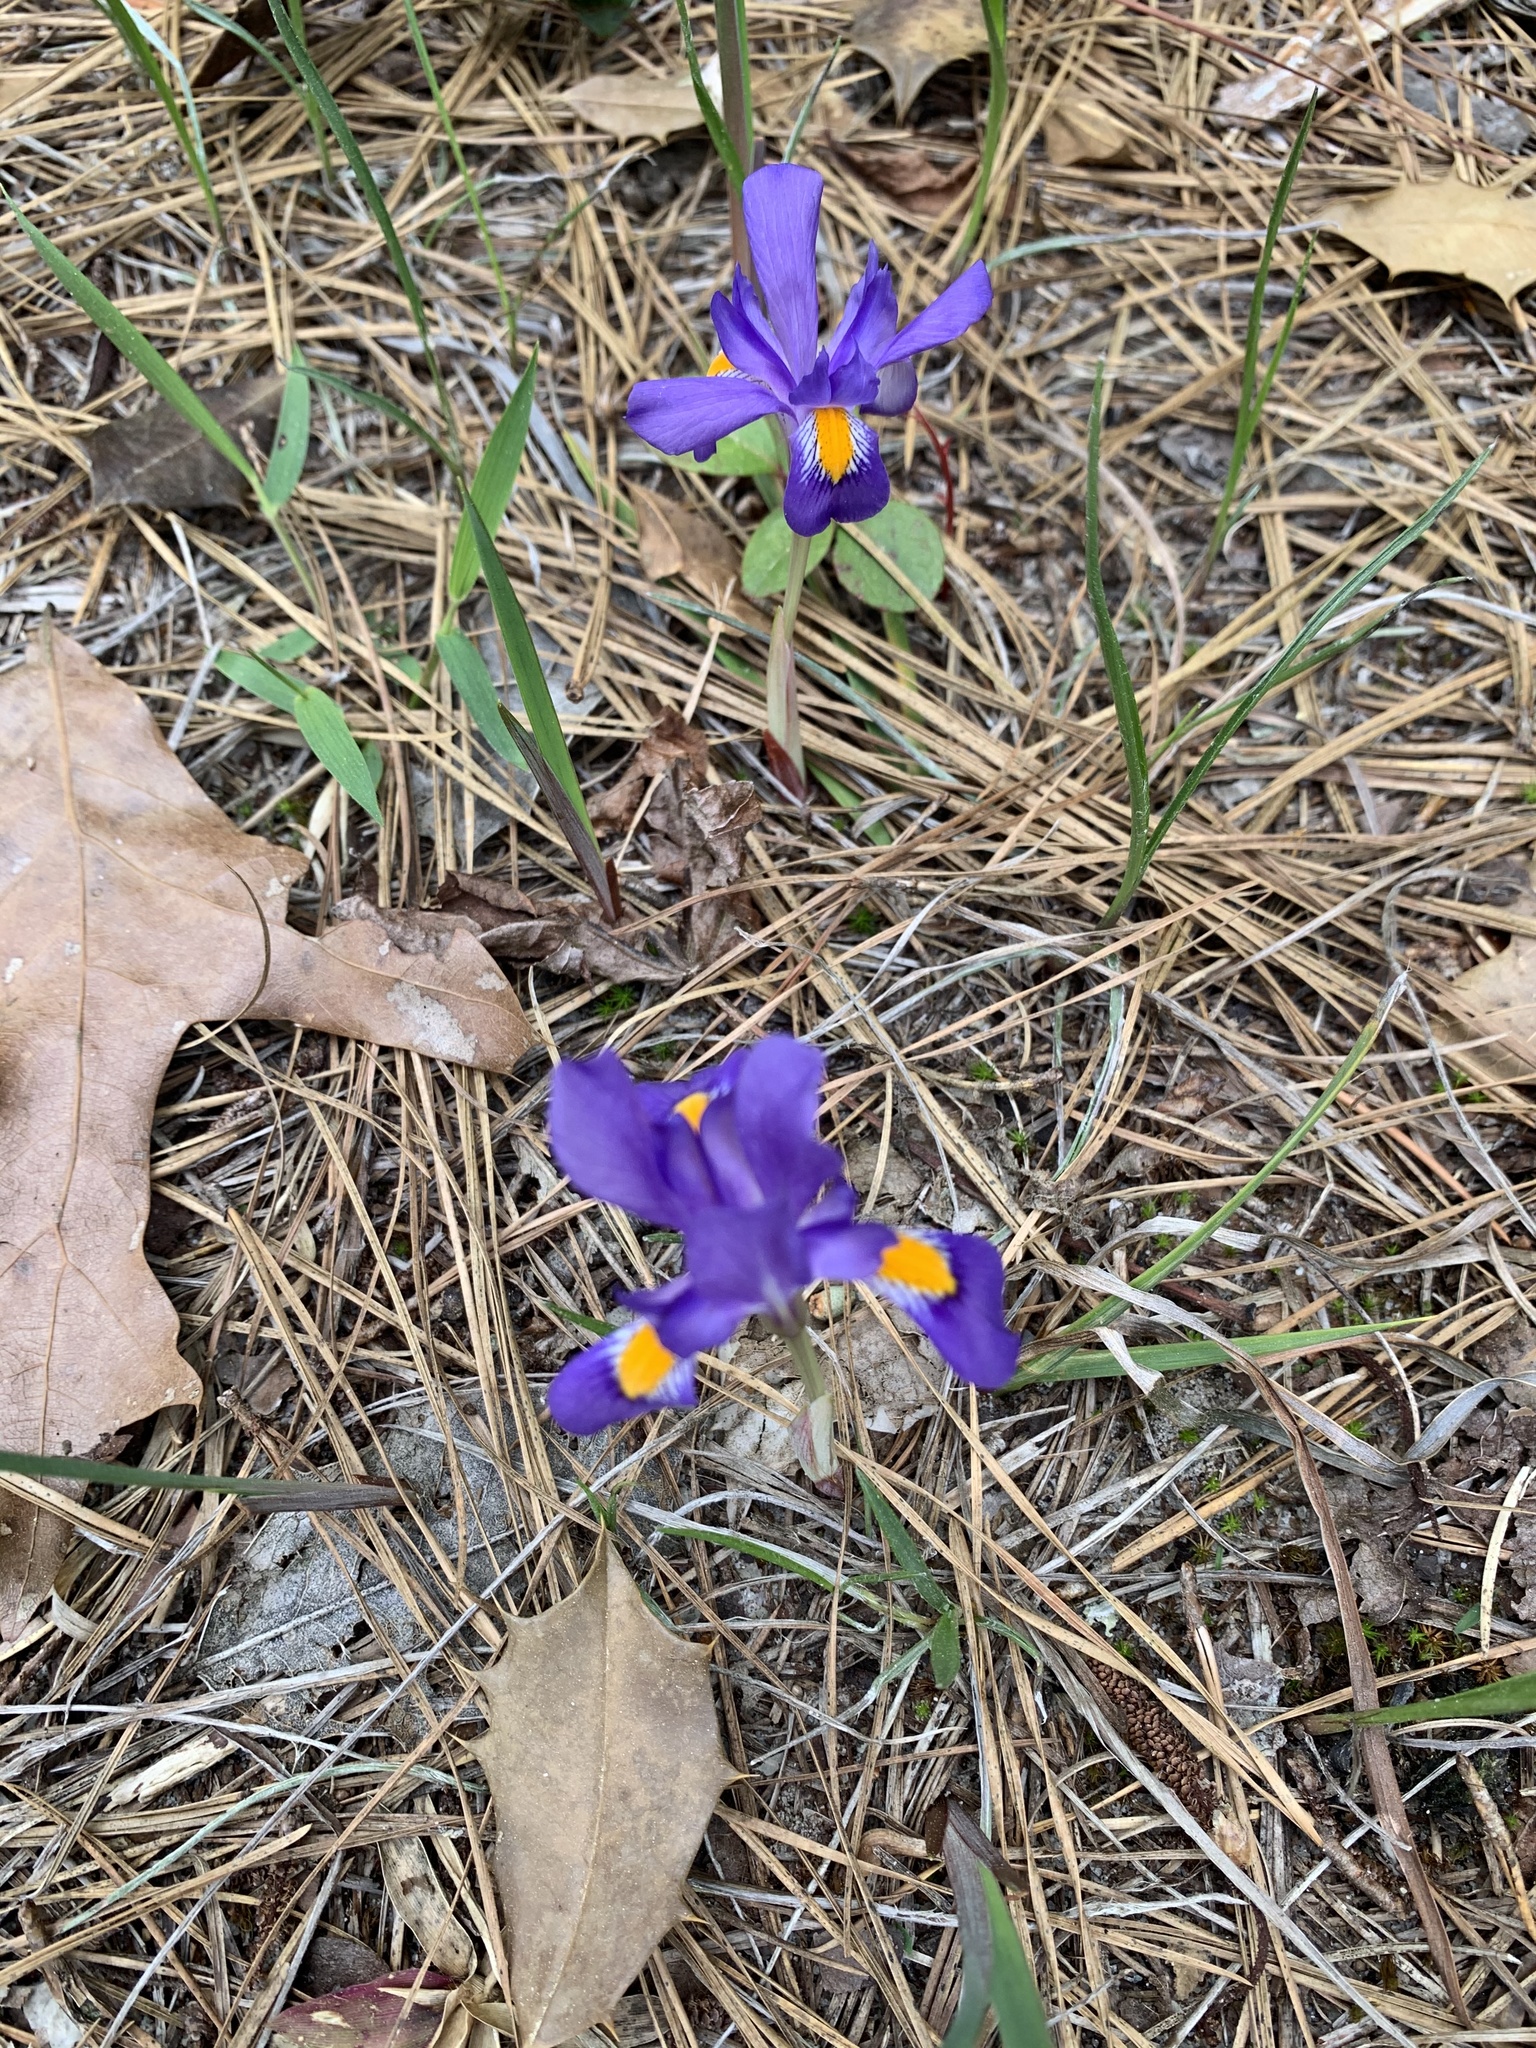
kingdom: Plantae
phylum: Tracheophyta
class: Liliopsida
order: Asparagales
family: Iridaceae
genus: Iris
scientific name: Iris verna
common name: Dwarf iris
